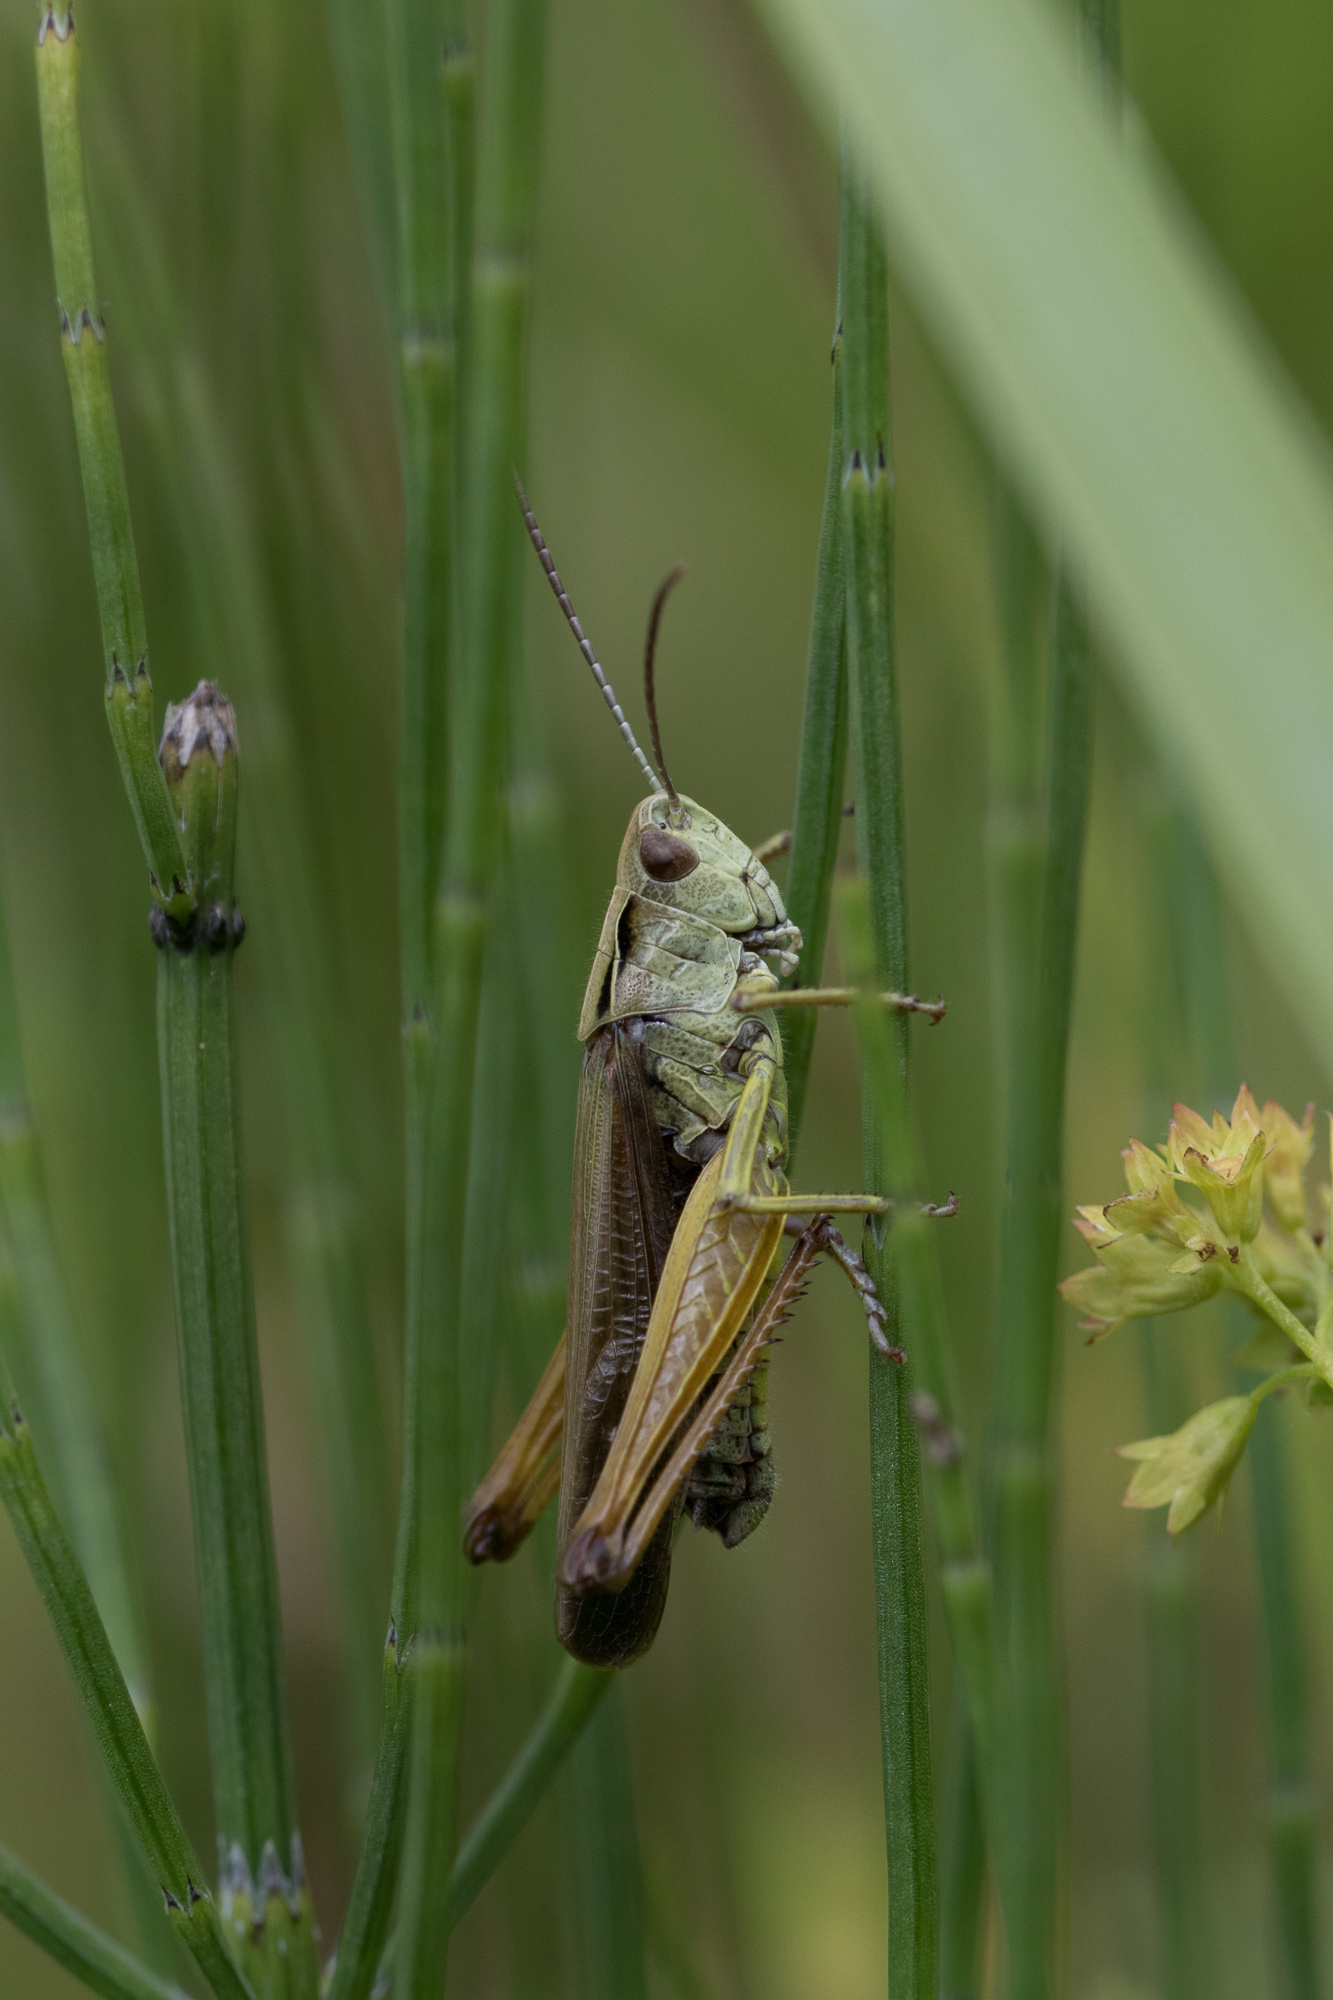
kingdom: Animalia
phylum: Arthropoda
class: Insecta
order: Orthoptera
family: Acrididae
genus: Omocestus
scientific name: Omocestus viridulus
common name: Common green grasshopper
